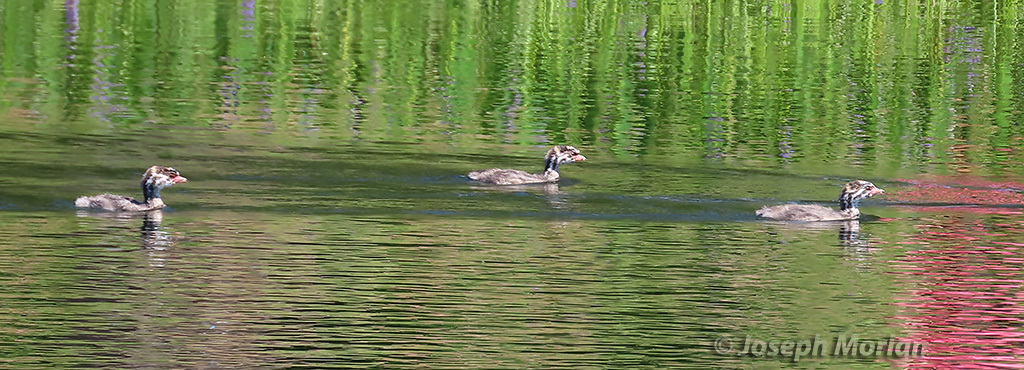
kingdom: Animalia
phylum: Chordata
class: Aves
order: Podicipediformes
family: Podicipedidae
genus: Podilymbus
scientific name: Podilymbus podiceps
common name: Pied-billed grebe
